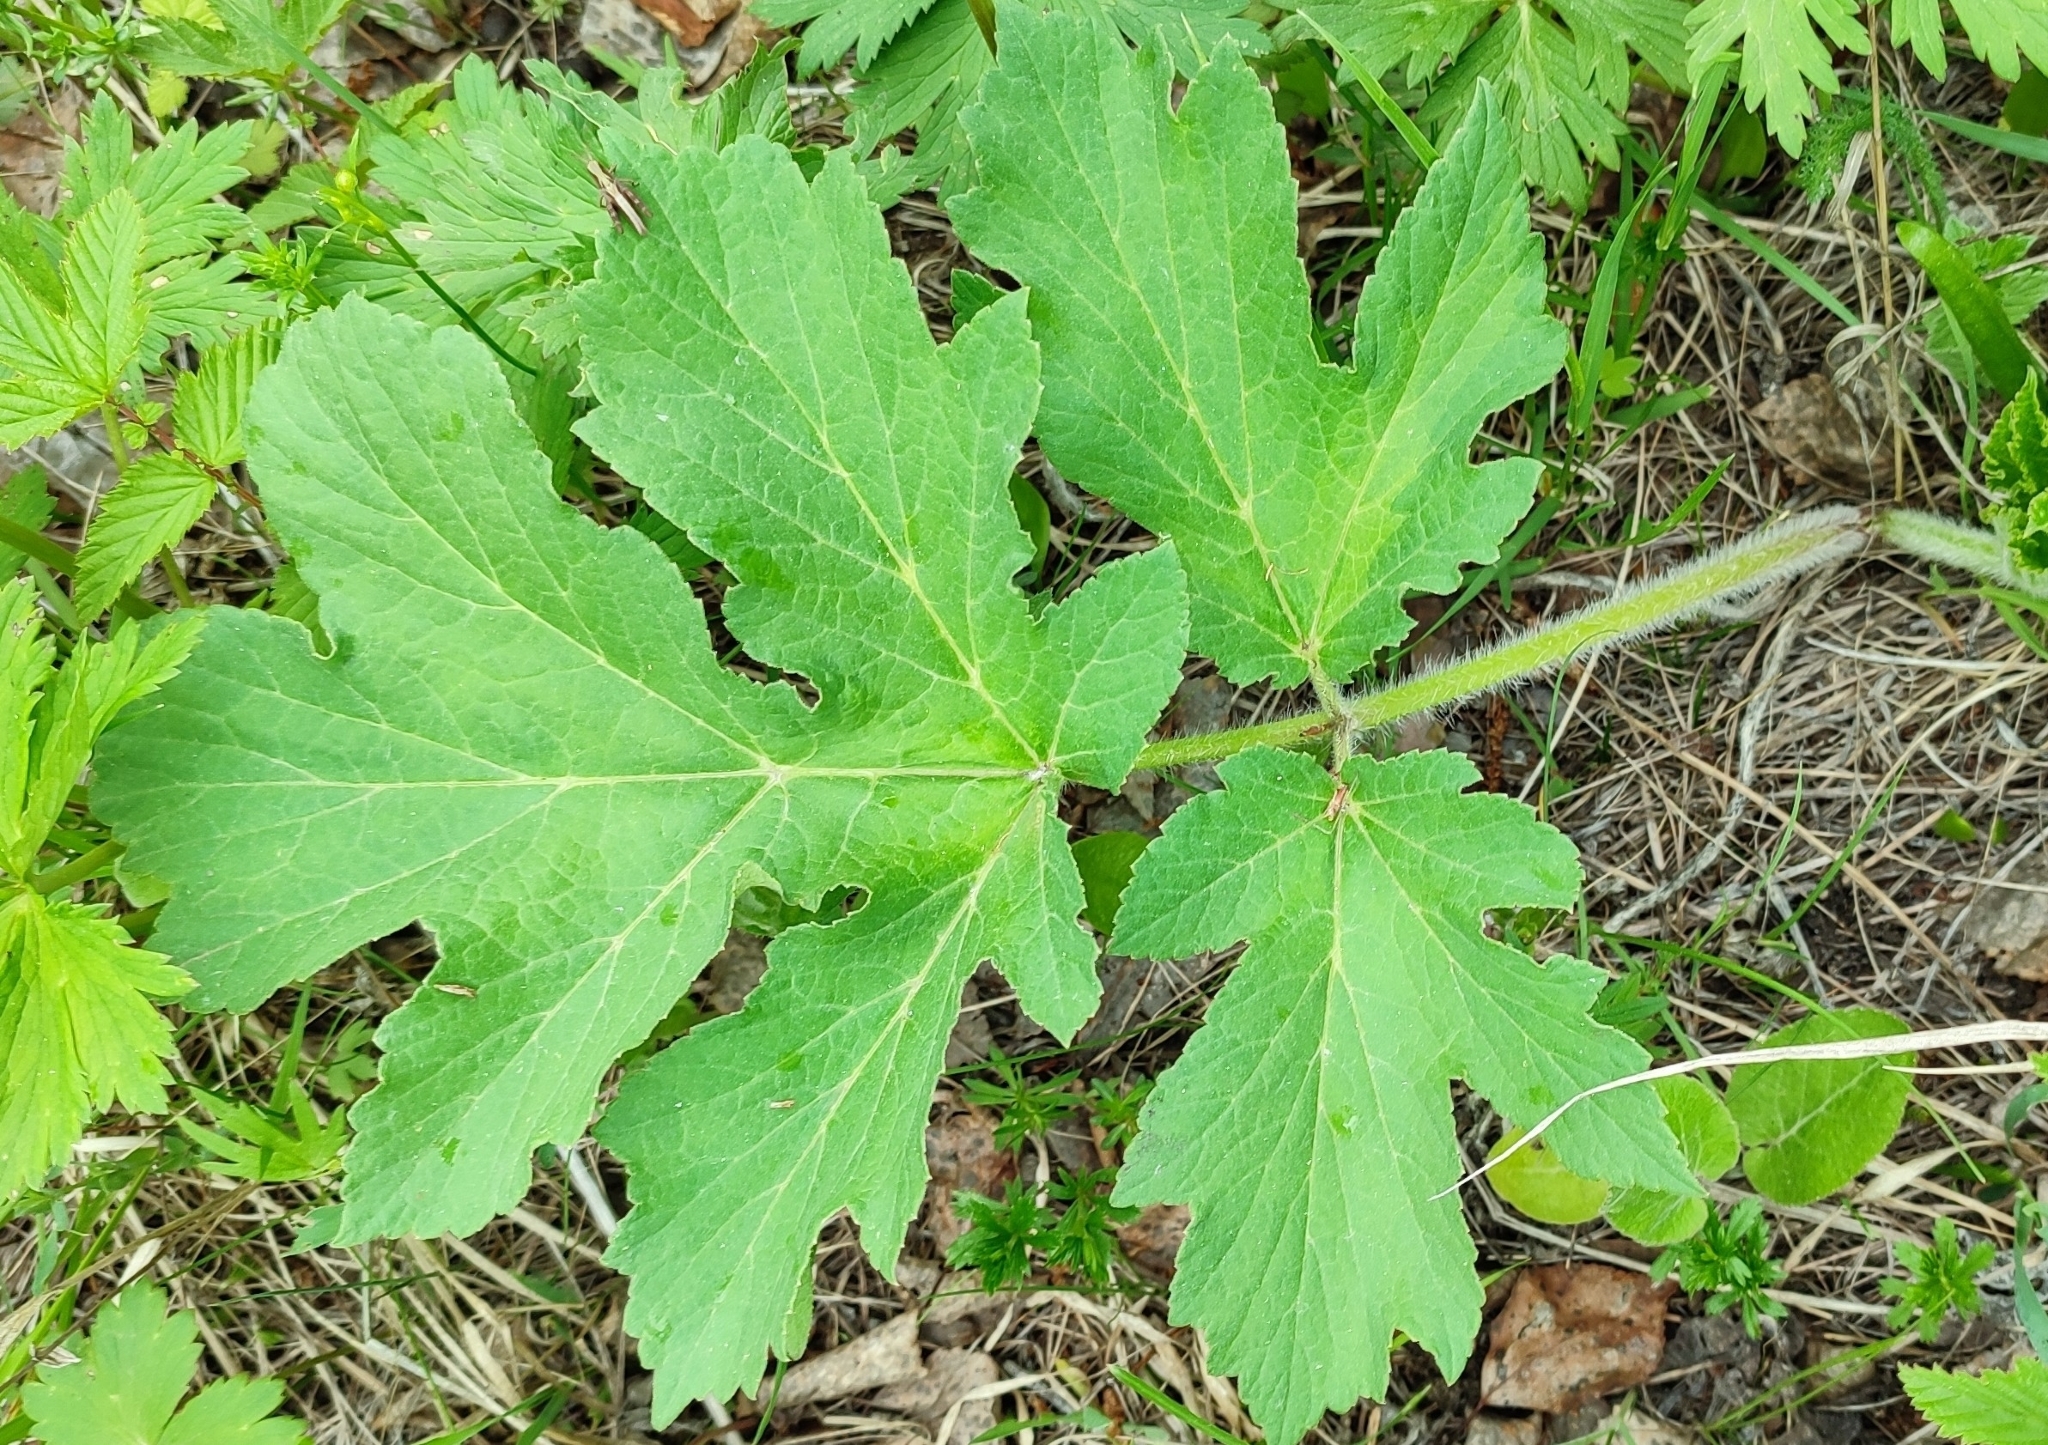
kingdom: Plantae
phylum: Tracheophyta
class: Magnoliopsida
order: Apiales
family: Apiaceae
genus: Heracleum
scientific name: Heracleum sphondylium
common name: Hogweed
